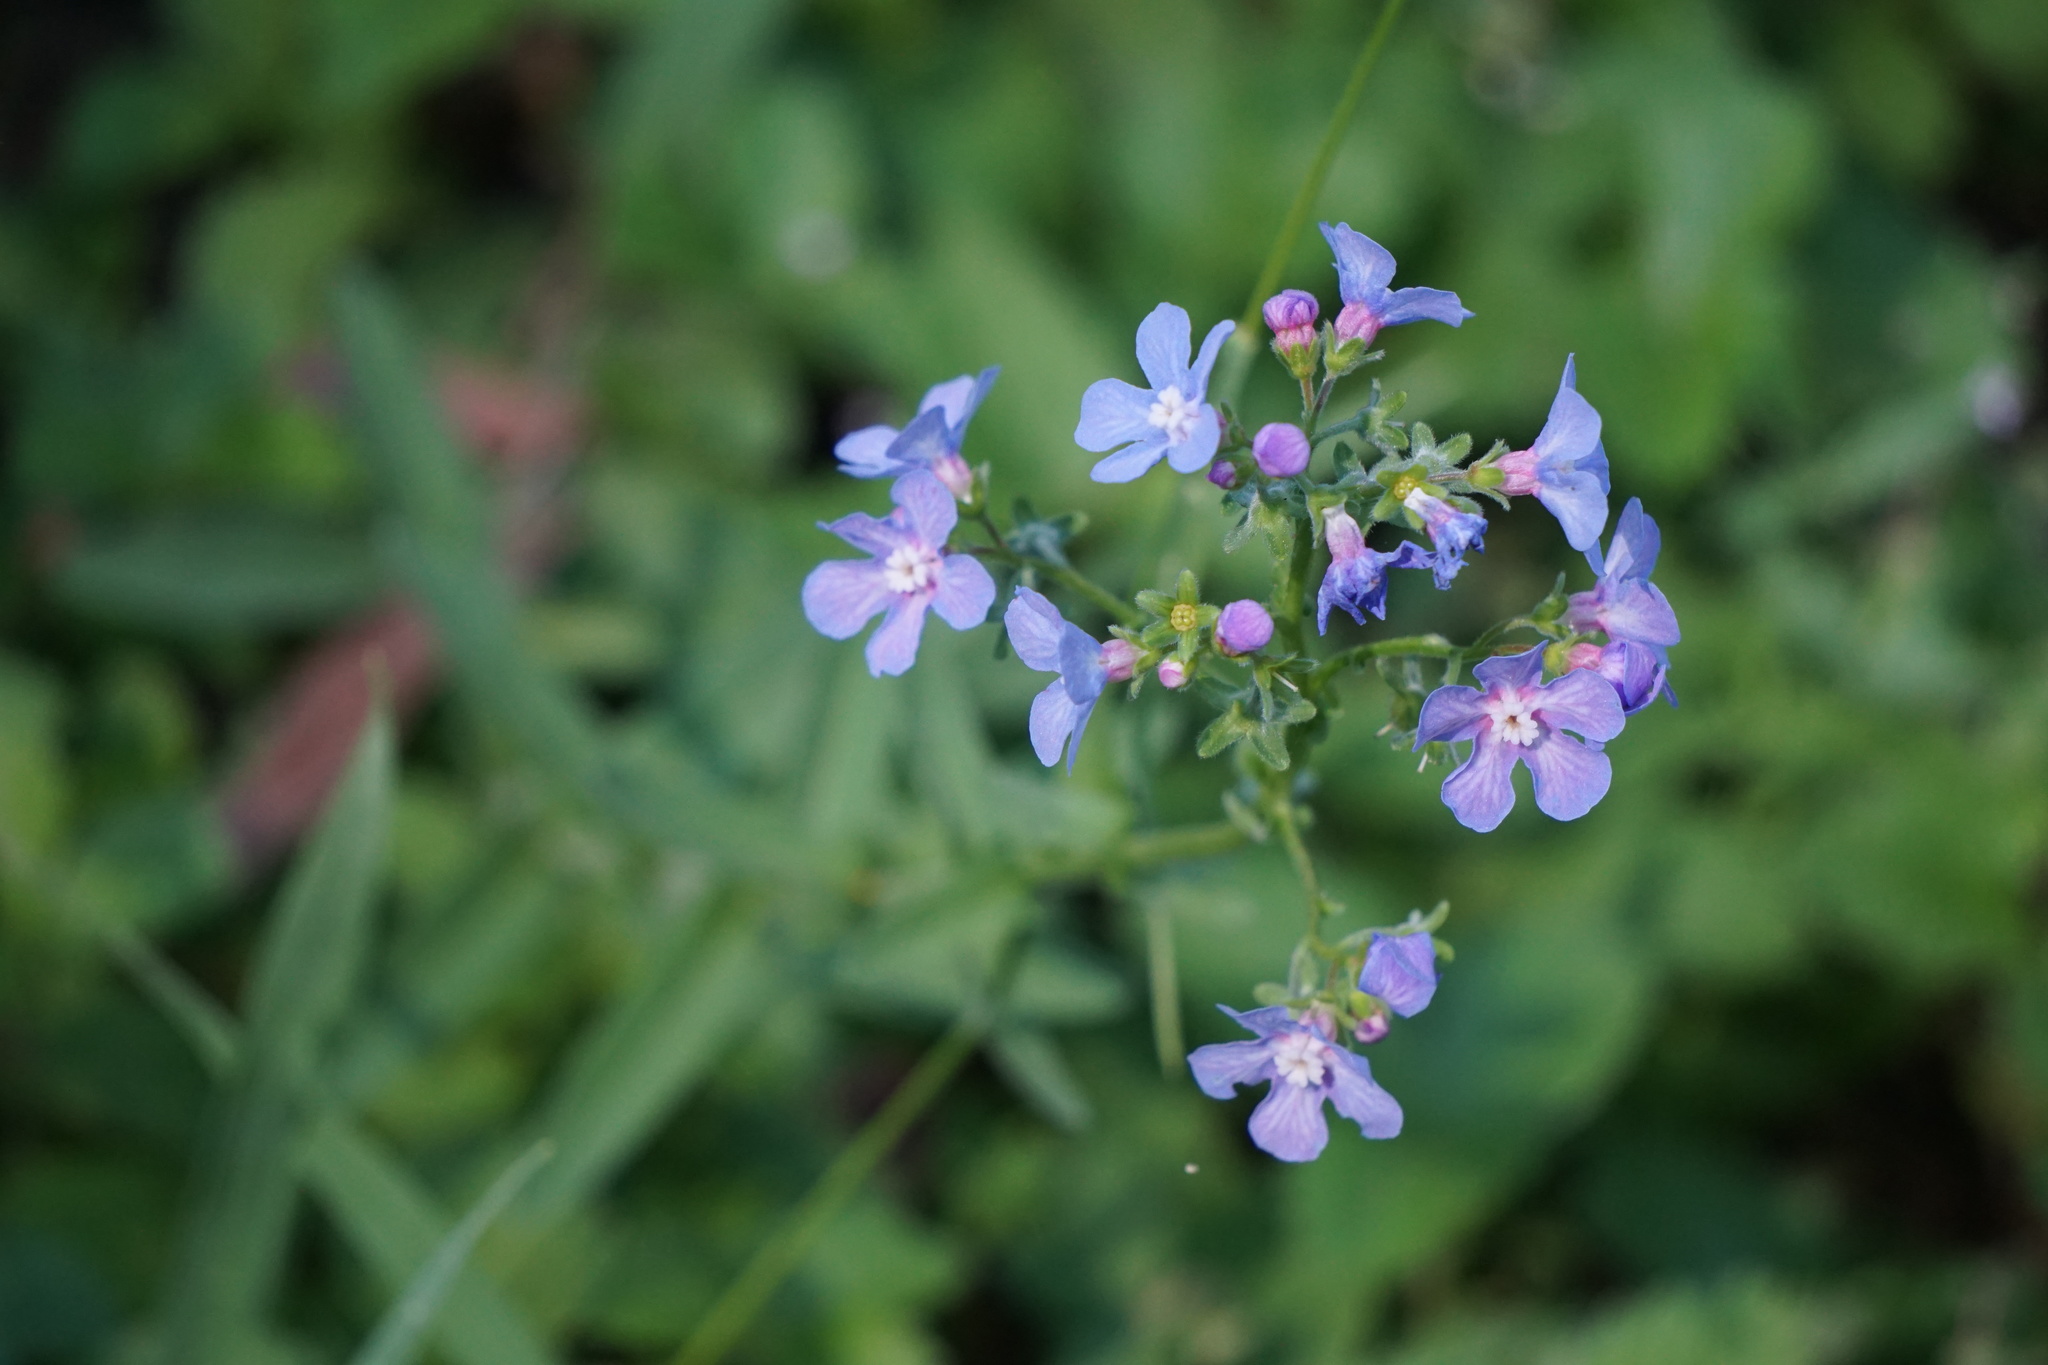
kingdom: Plantae
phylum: Tracheophyta
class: Magnoliopsida
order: Boraginales
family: Boraginaceae
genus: Hackelia
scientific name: Hackelia patens
